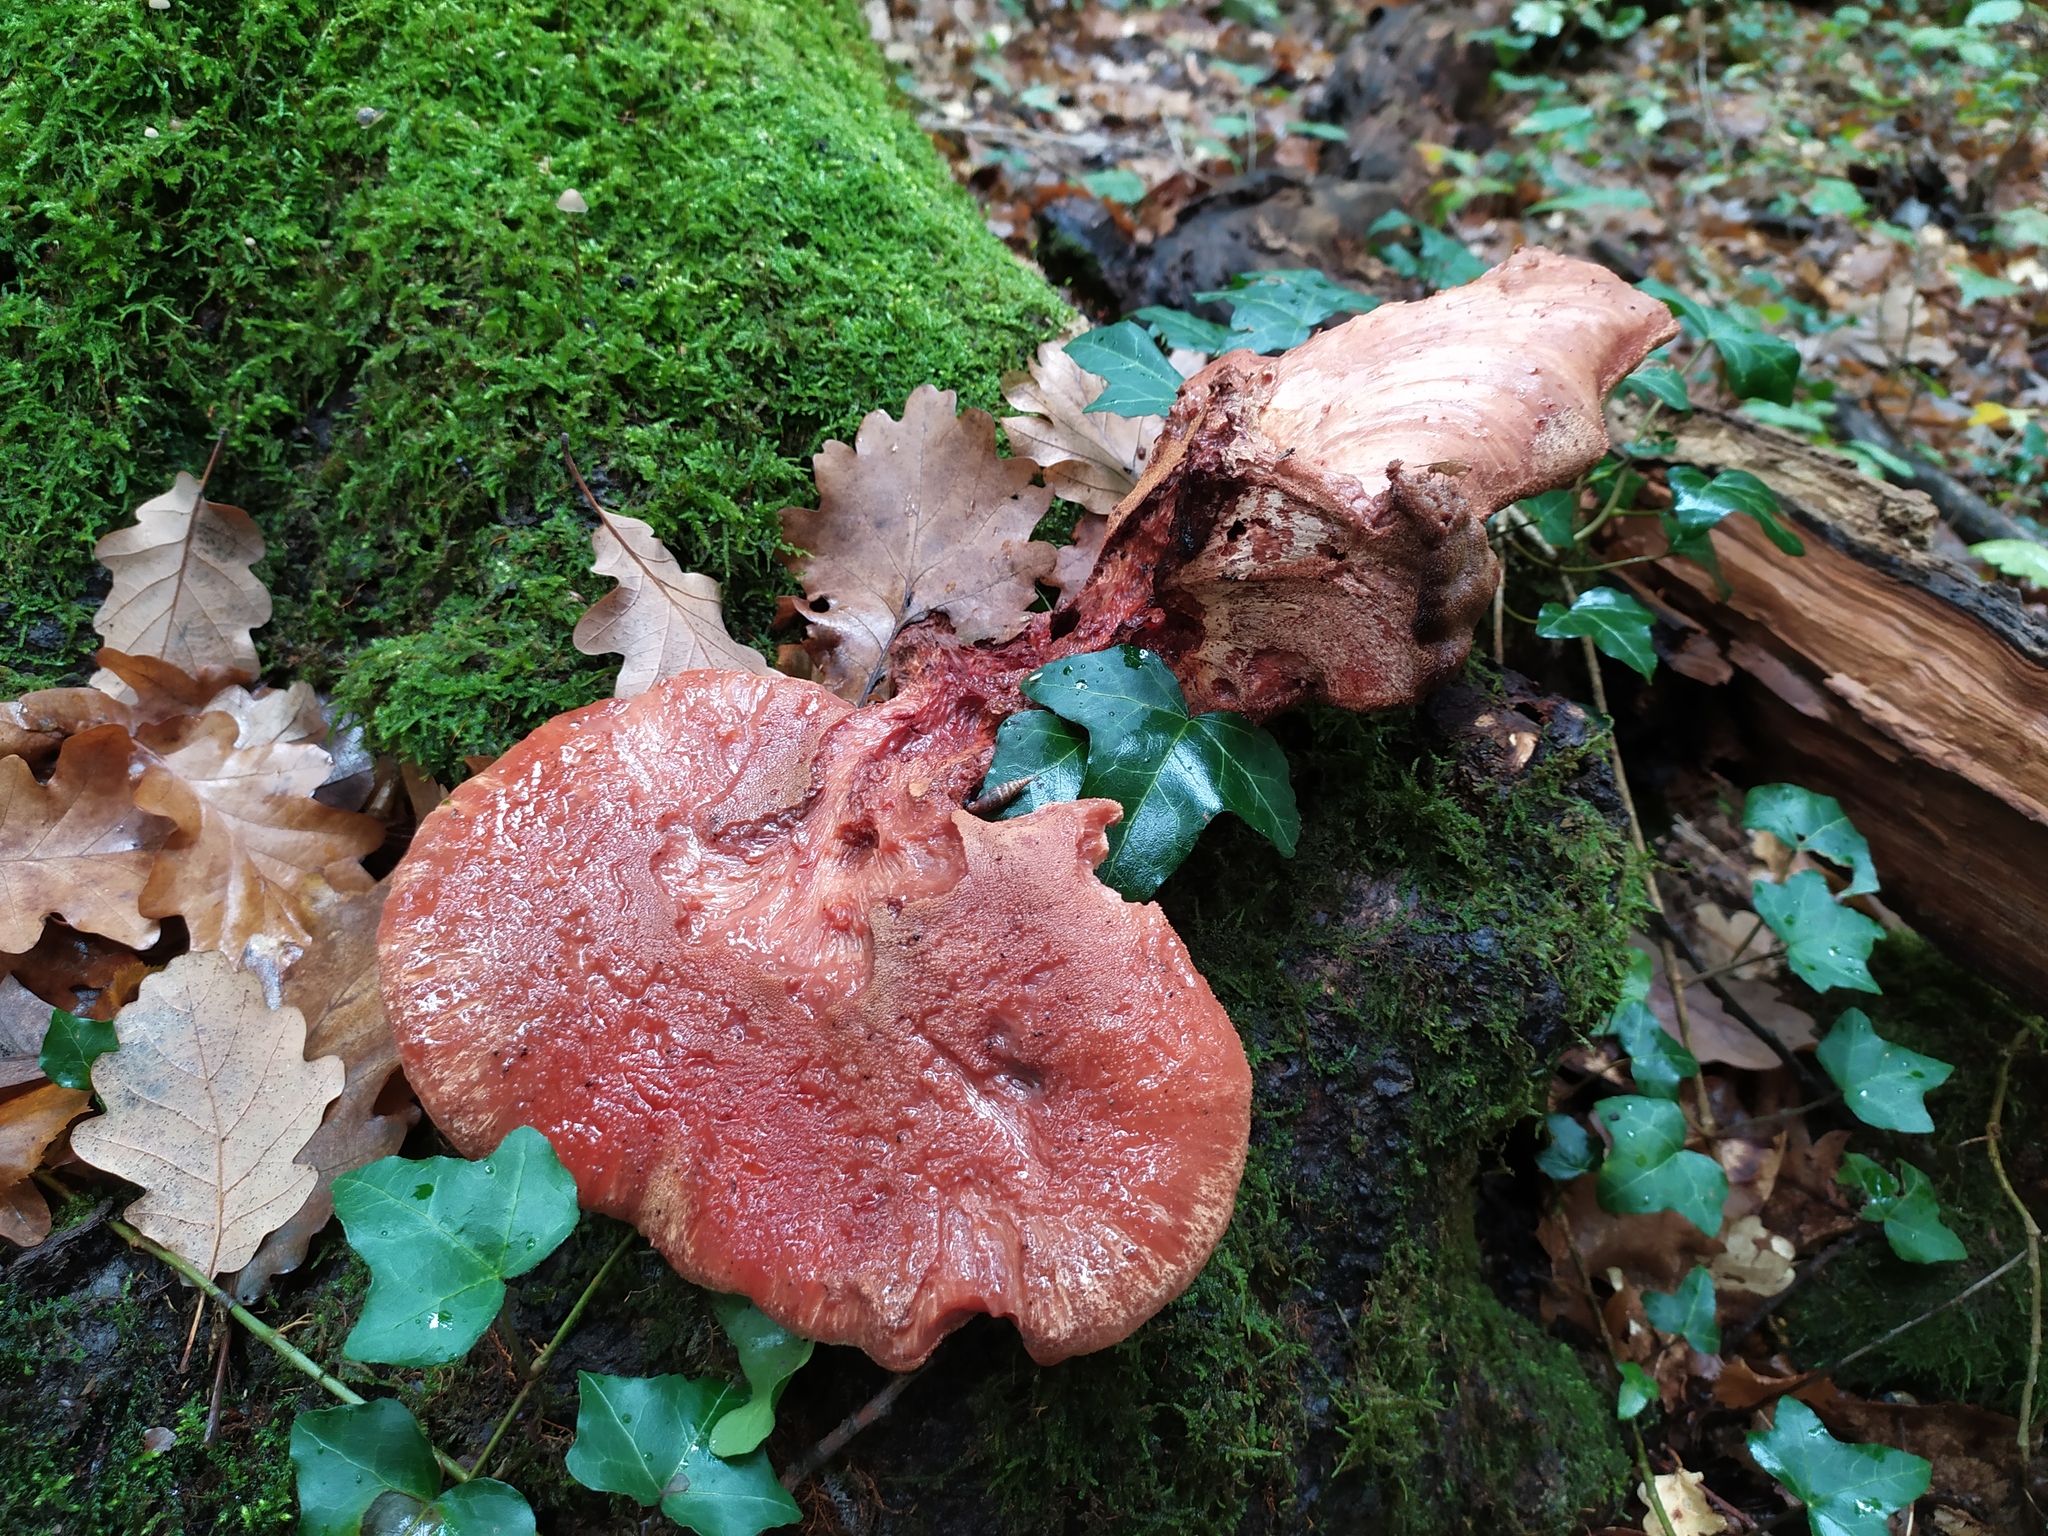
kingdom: Fungi
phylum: Basidiomycota
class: Agaricomycetes
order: Agaricales
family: Fistulinaceae
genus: Fistulina
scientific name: Fistulina hepatica
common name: Beef-steak fungus
